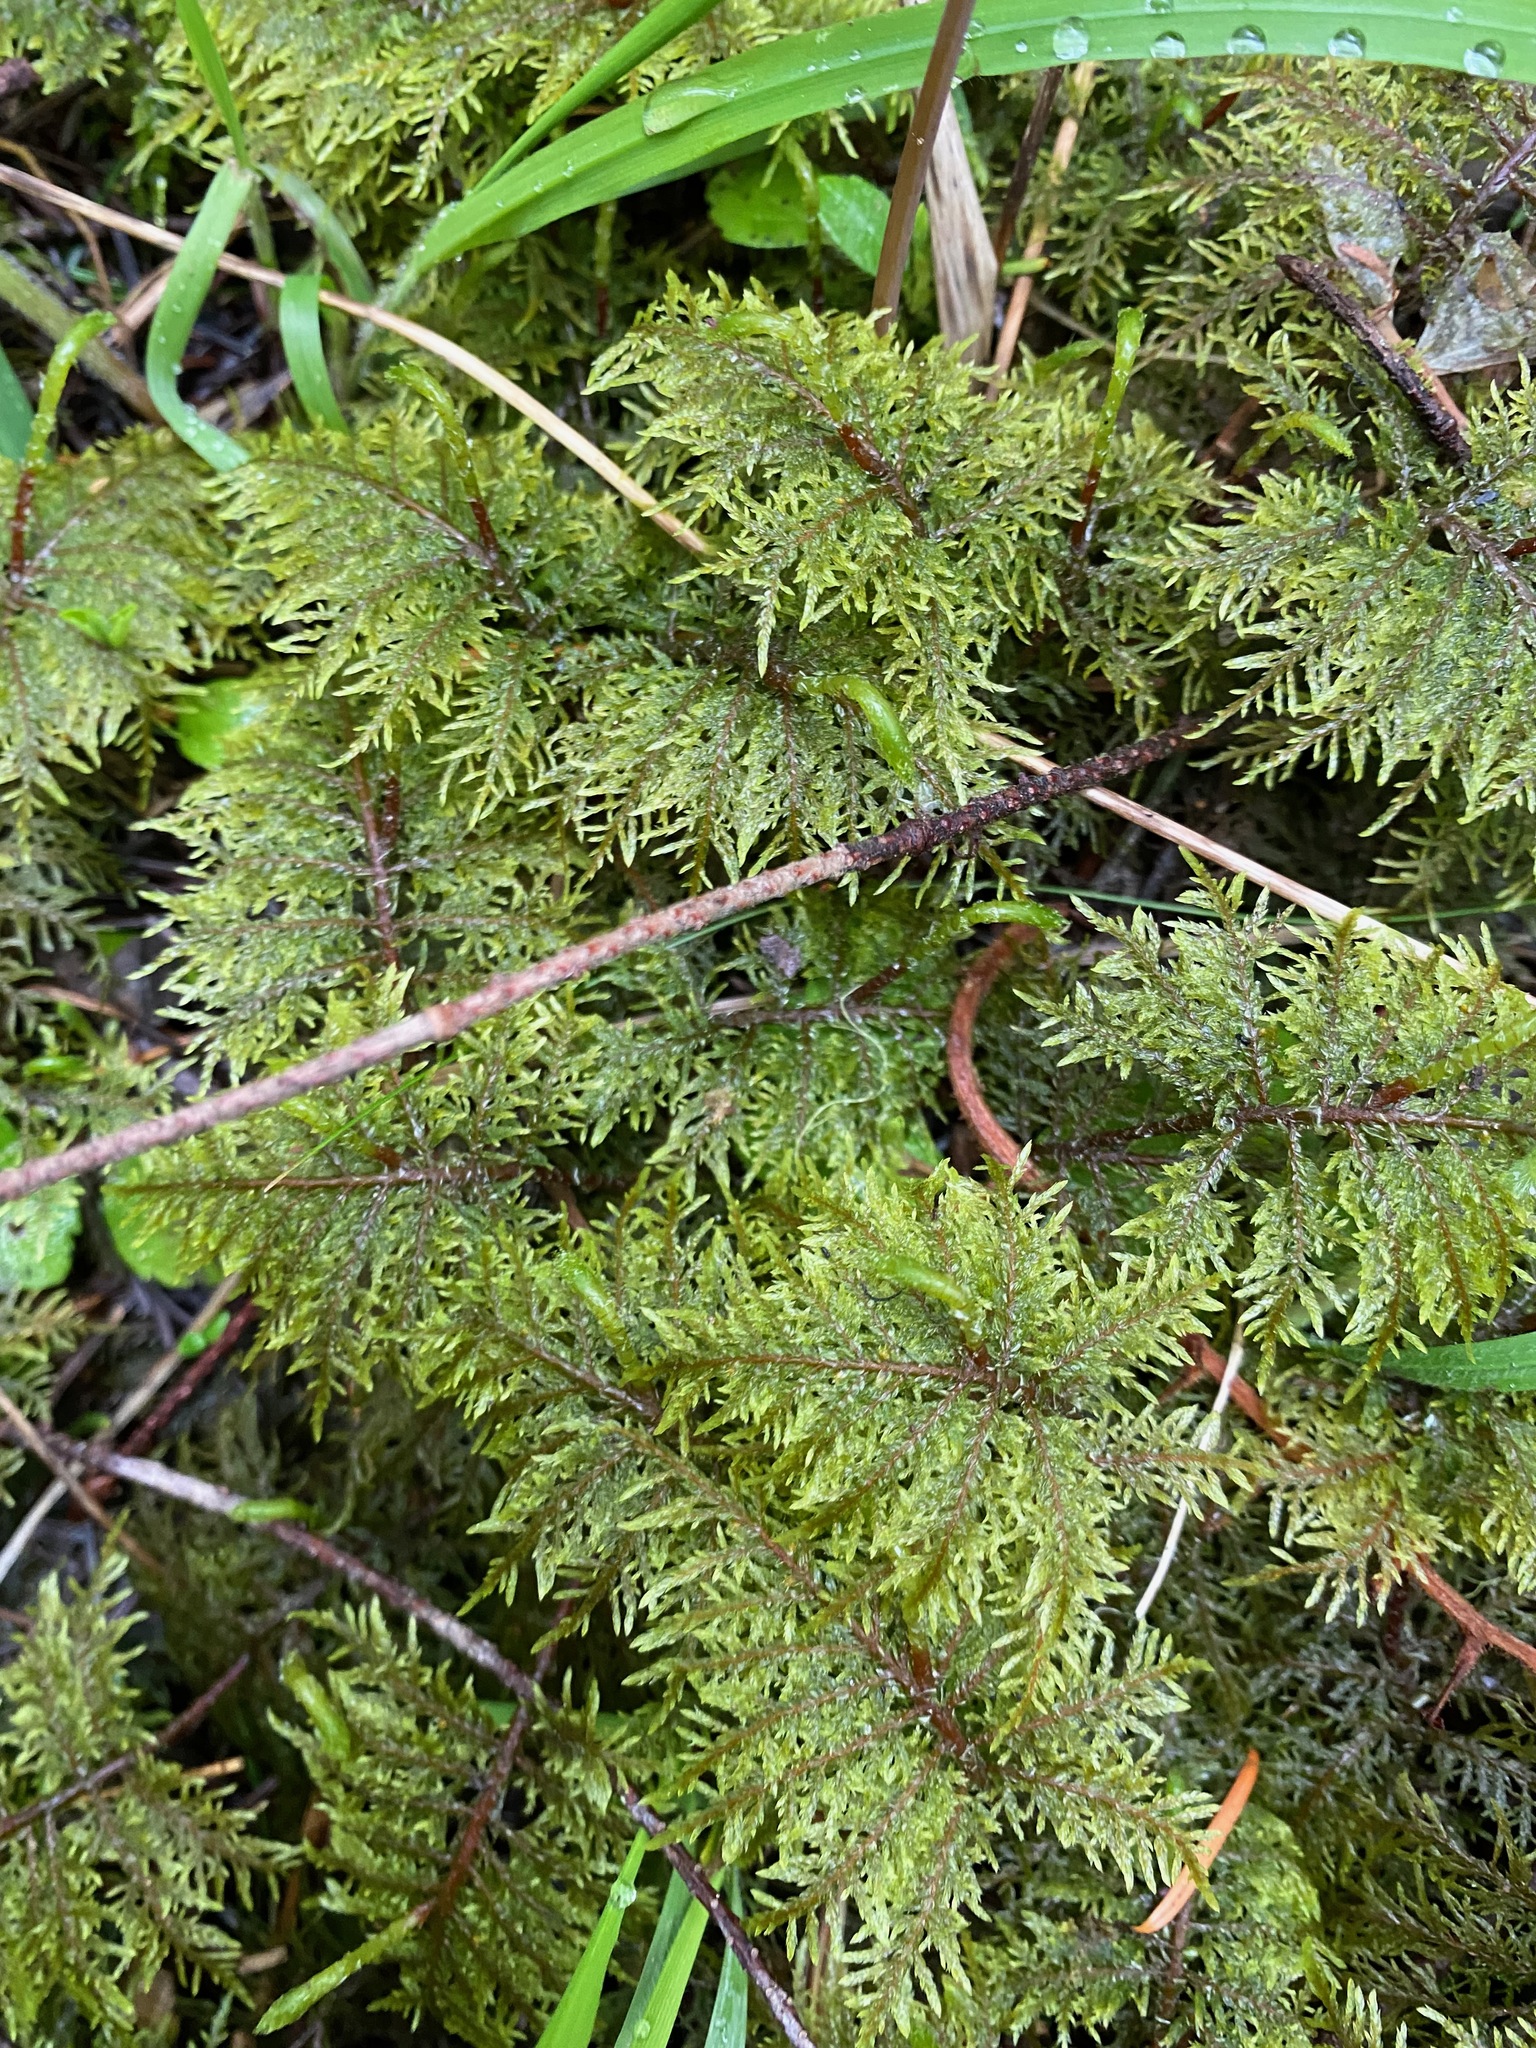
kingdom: Plantae
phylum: Bryophyta
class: Bryopsida
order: Hypnales
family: Hylocomiaceae
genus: Hylocomium
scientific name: Hylocomium splendens
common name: Stairstep moss
